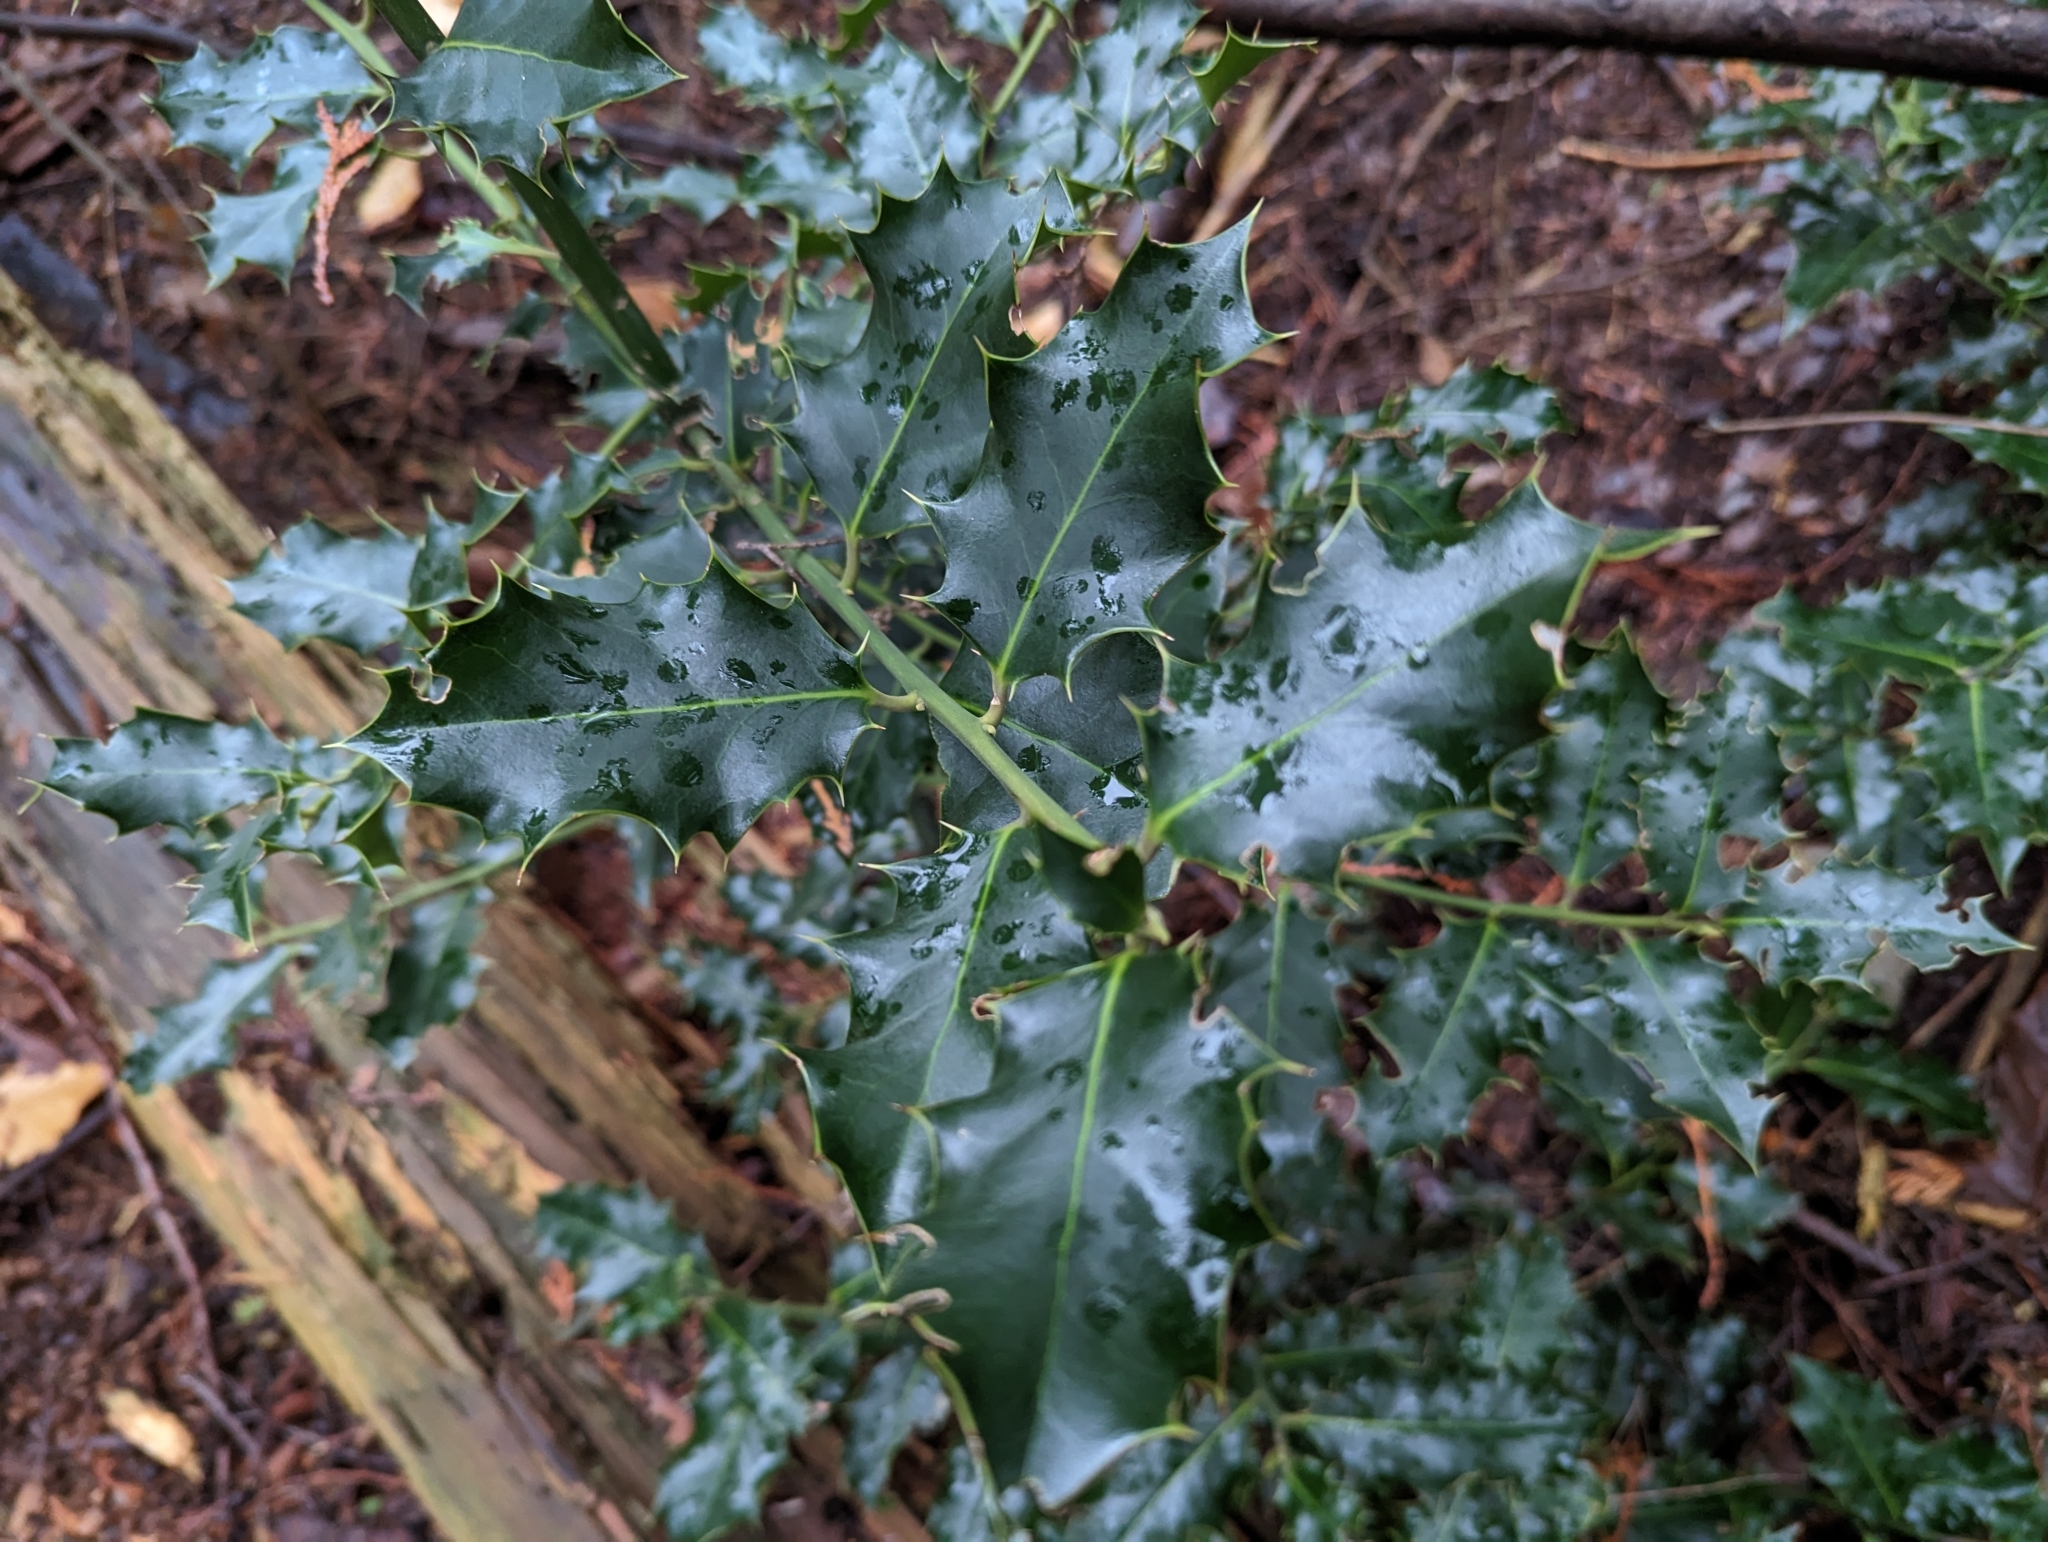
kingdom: Plantae
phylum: Tracheophyta
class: Magnoliopsida
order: Aquifoliales
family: Aquifoliaceae
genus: Ilex
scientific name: Ilex aquifolium
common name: English holly
